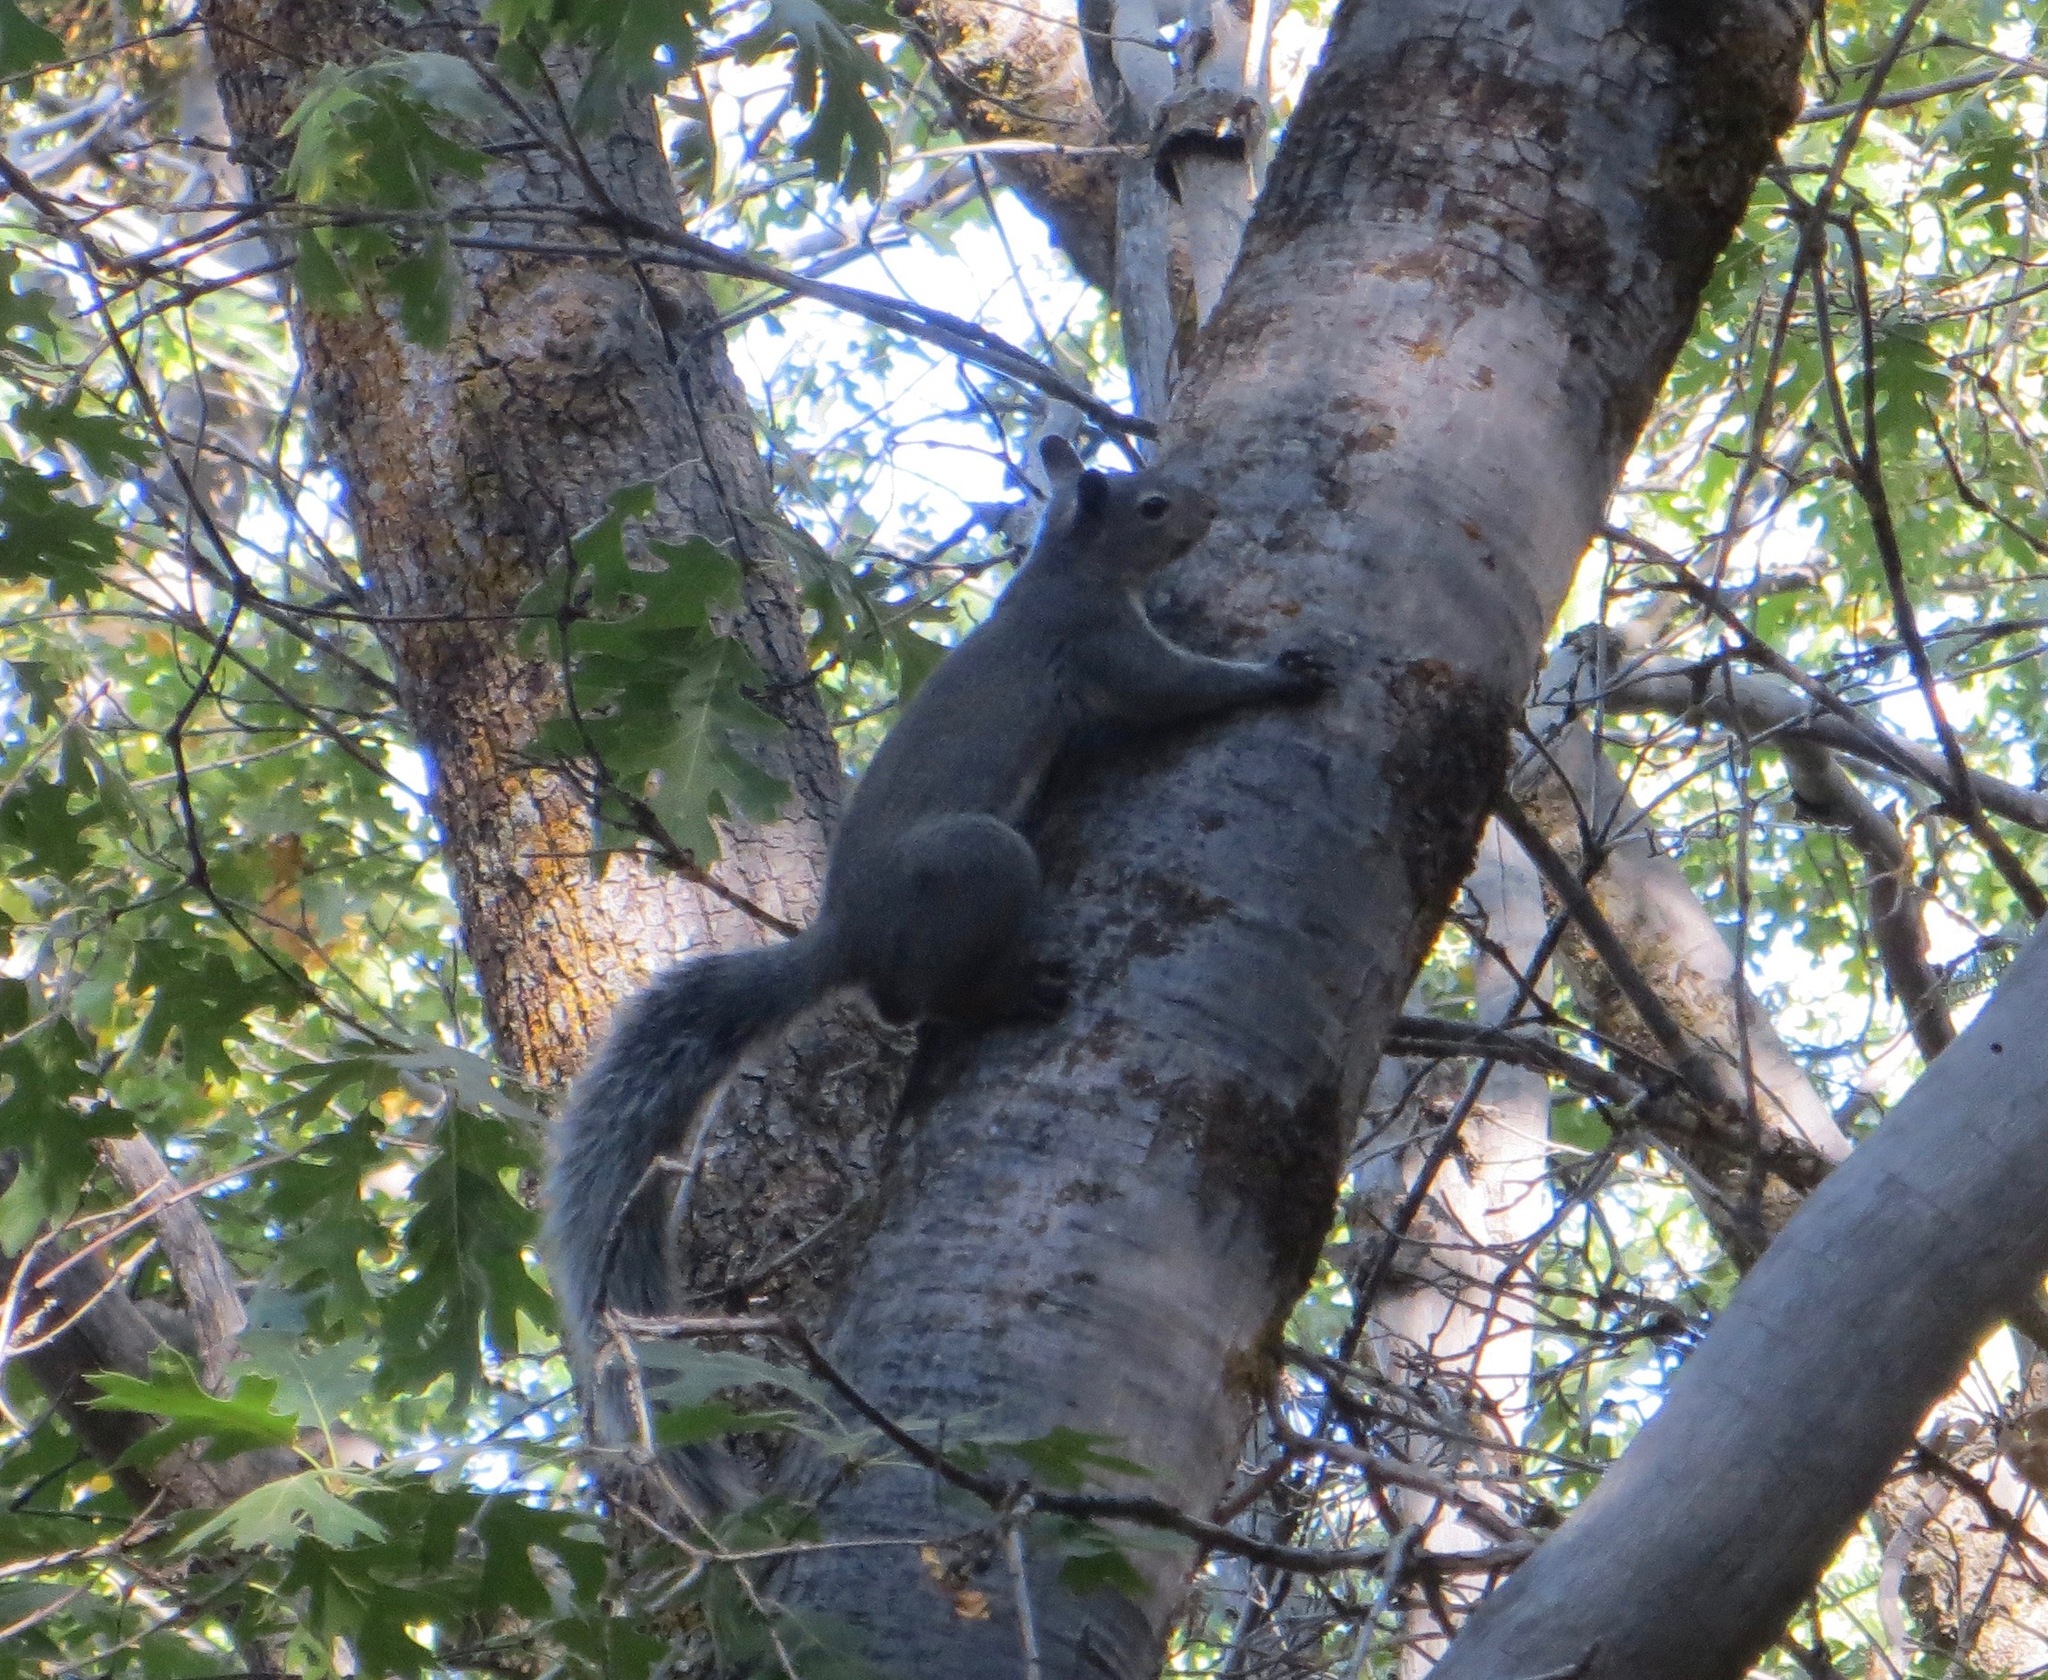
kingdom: Animalia
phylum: Chordata
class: Mammalia
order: Rodentia
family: Sciuridae
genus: Sciurus
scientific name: Sciurus griseus
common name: Western gray squirrel
